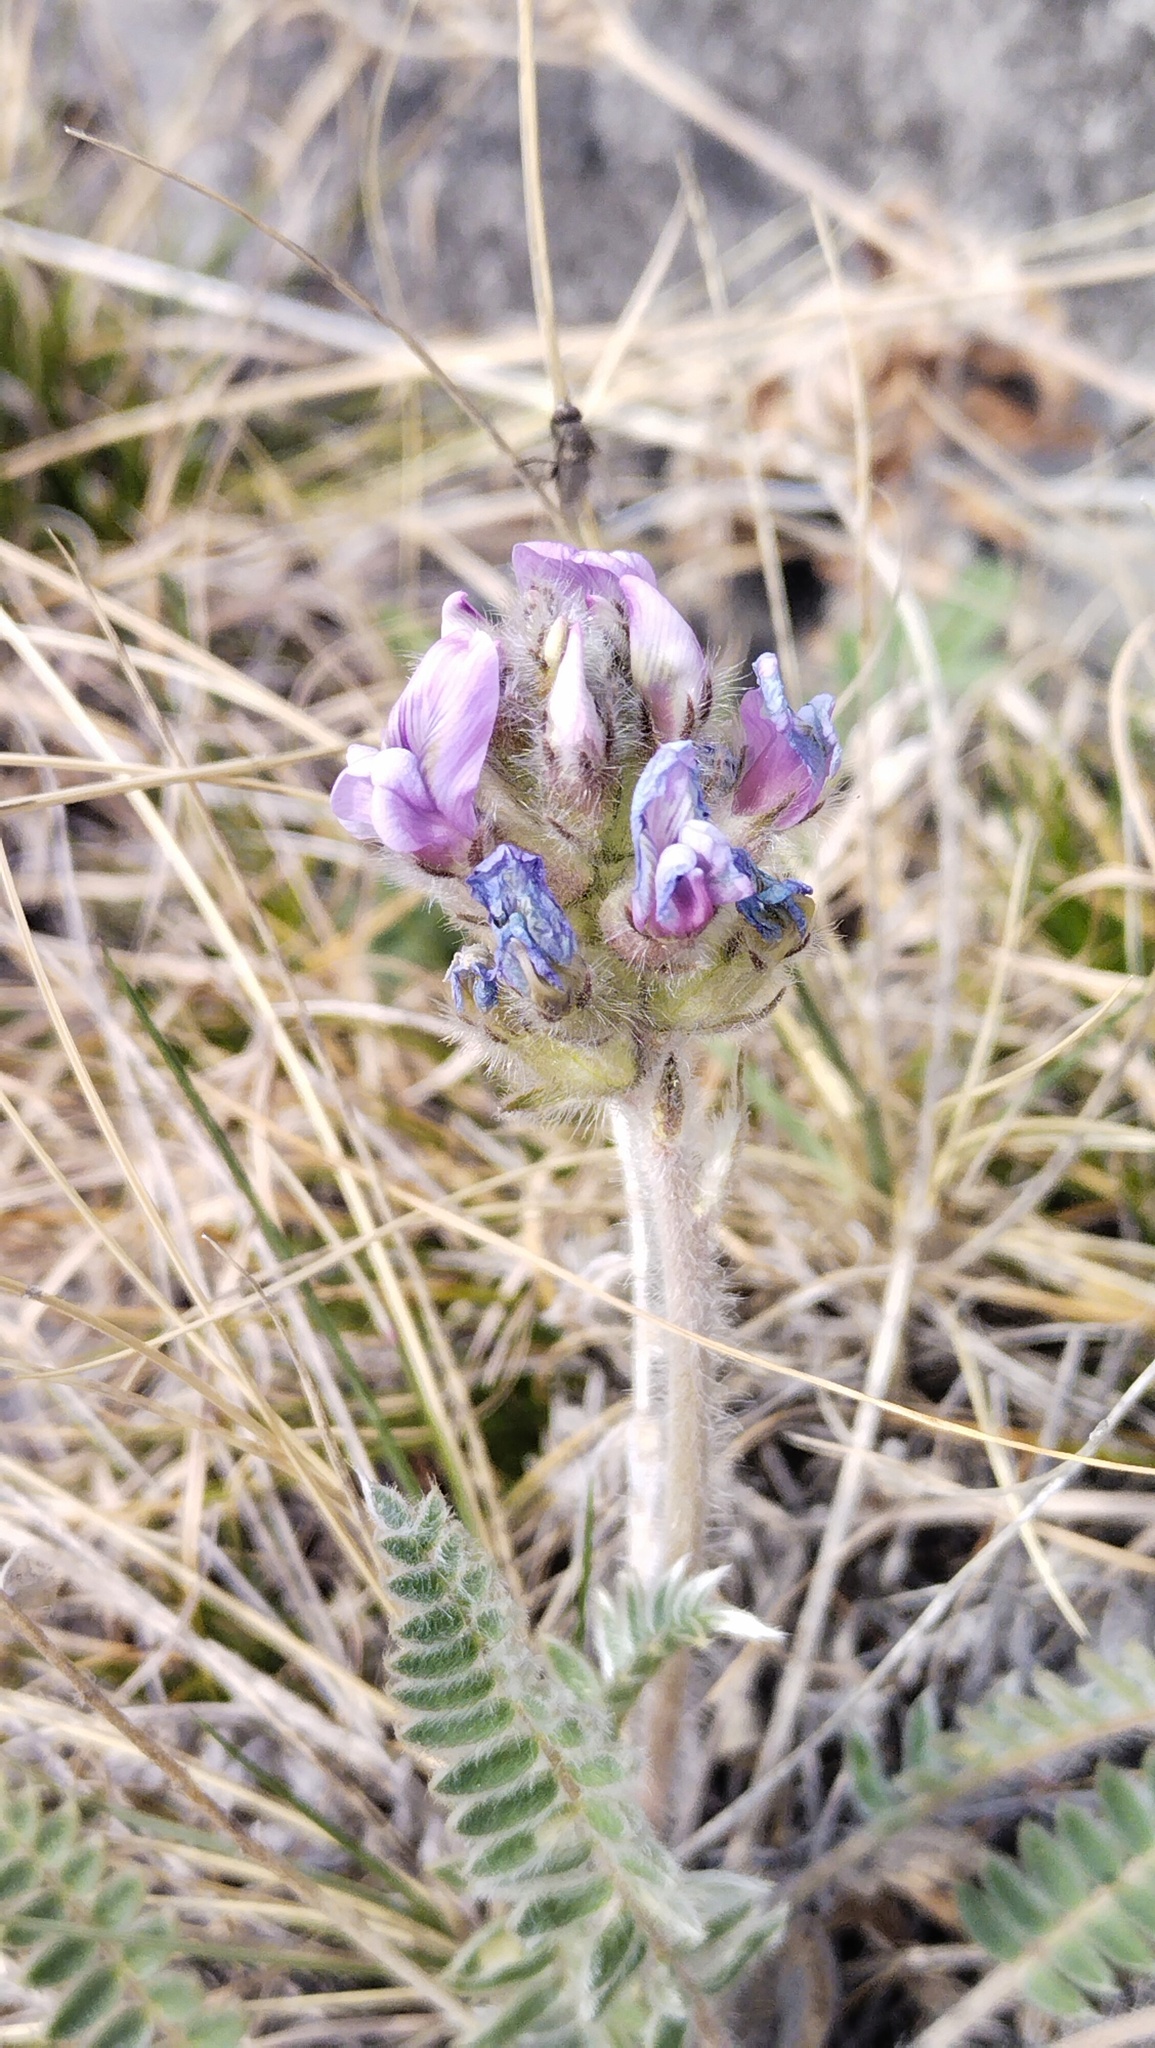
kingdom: Plantae
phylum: Tracheophyta
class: Magnoliopsida
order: Fabales
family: Fabaceae
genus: Oxytropis
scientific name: Oxytropis strobilacea
